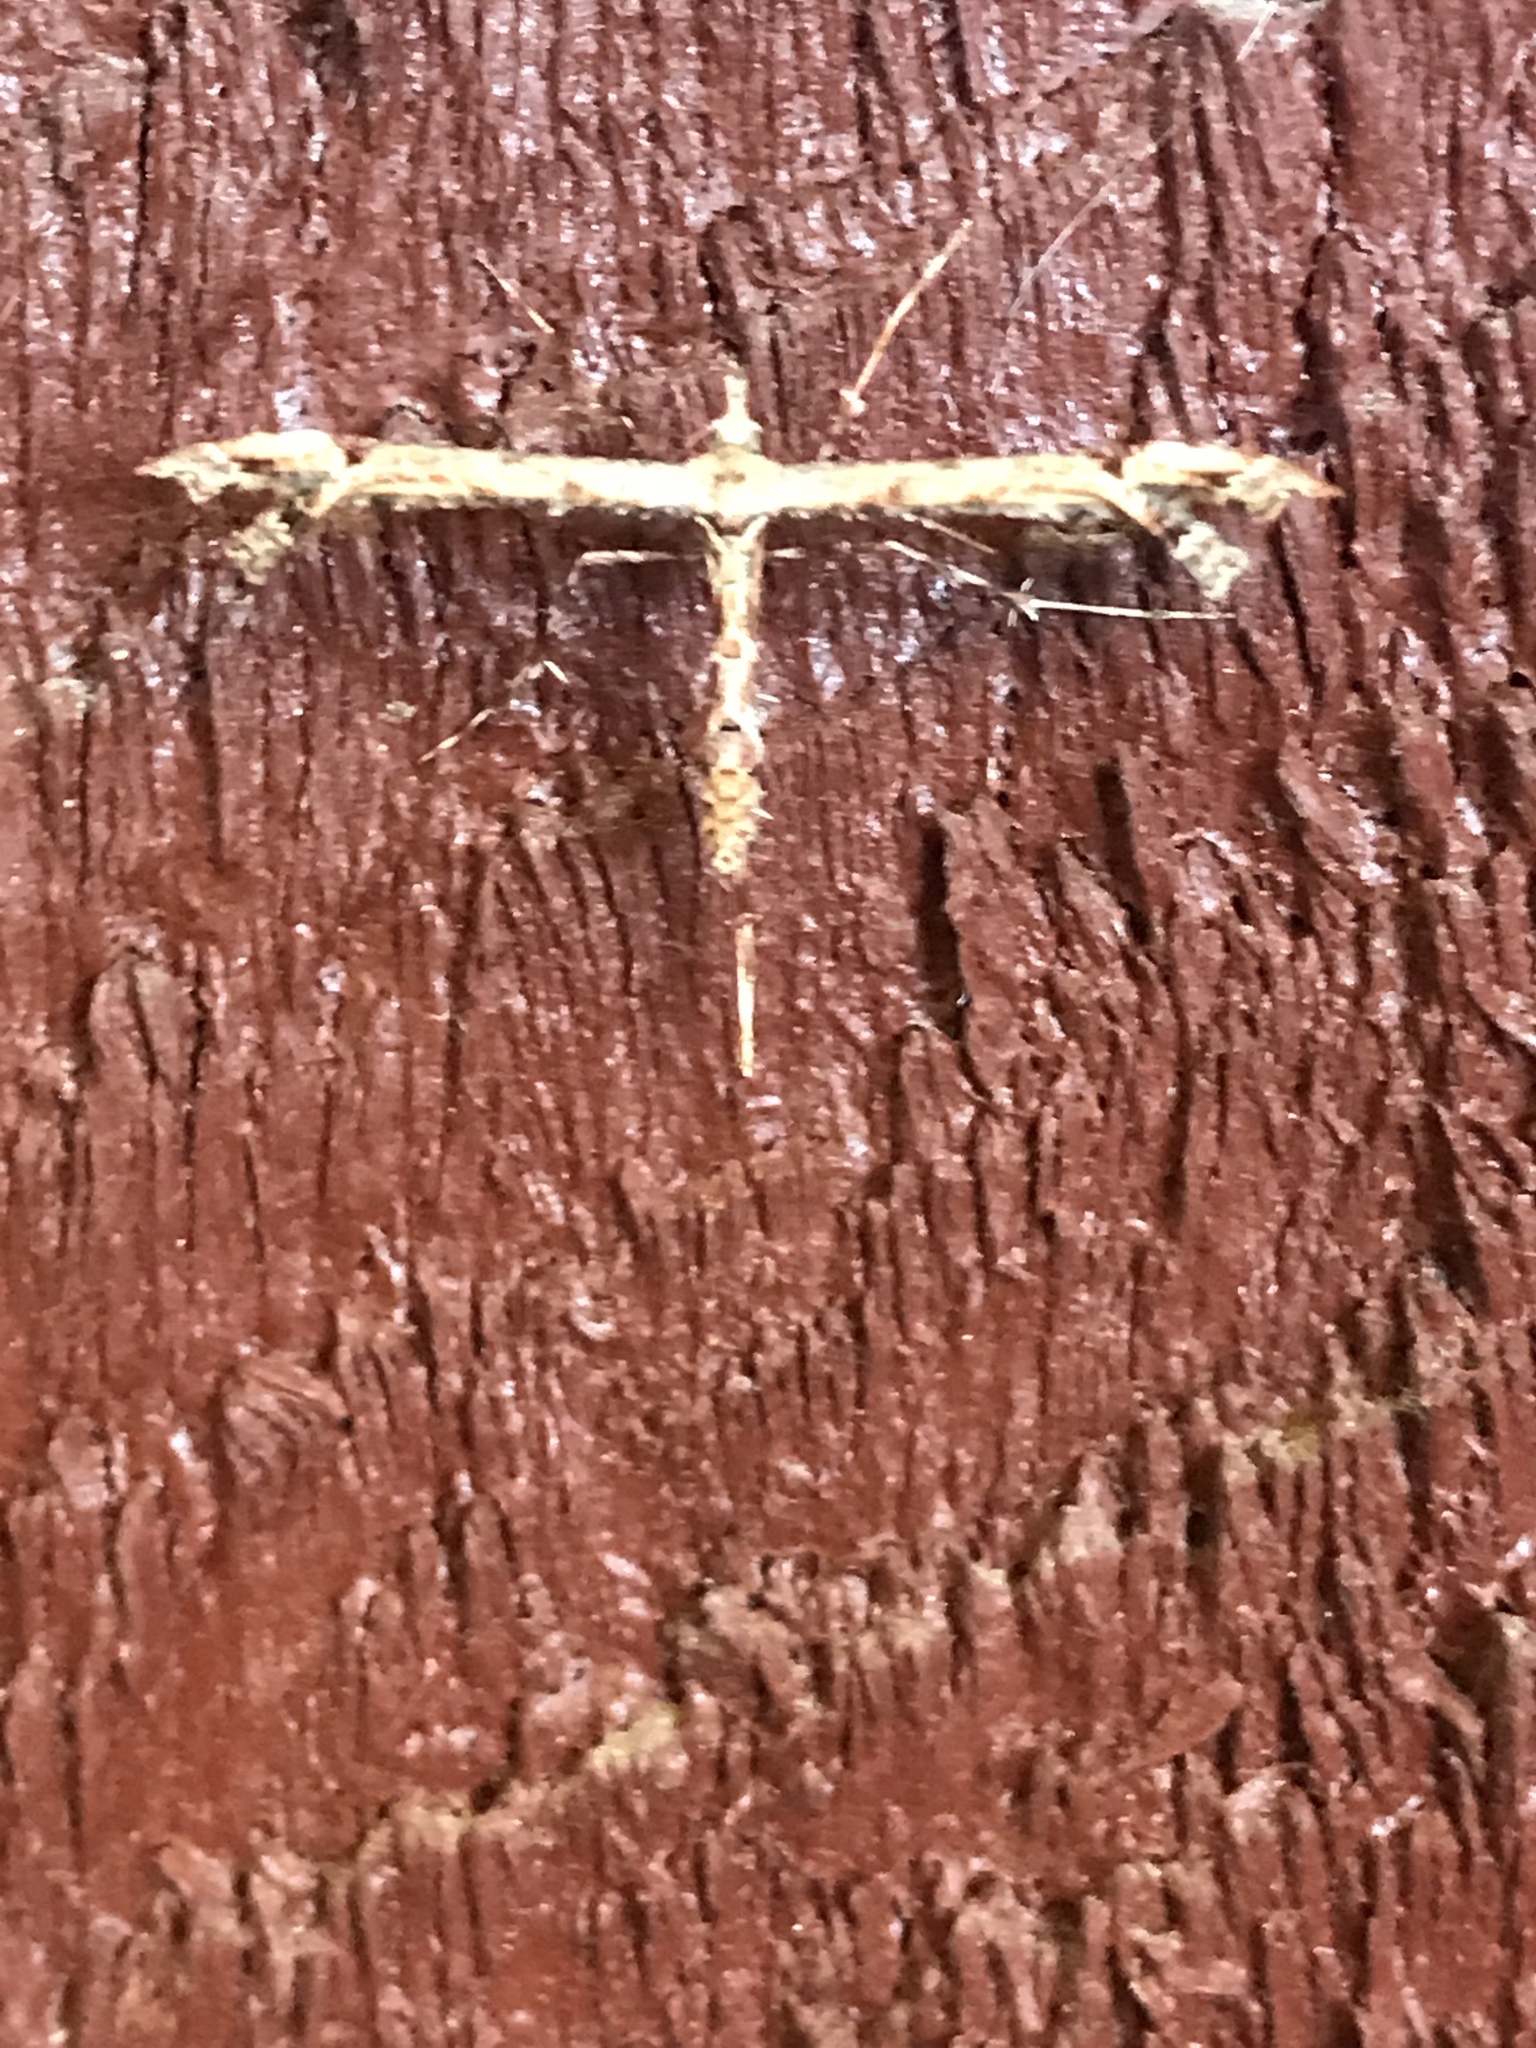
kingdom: Animalia
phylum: Arthropoda
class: Insecta
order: Lepidoptera
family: Pterophoridae
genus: Amblyptilia
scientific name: Amblyptilia falcatalis
